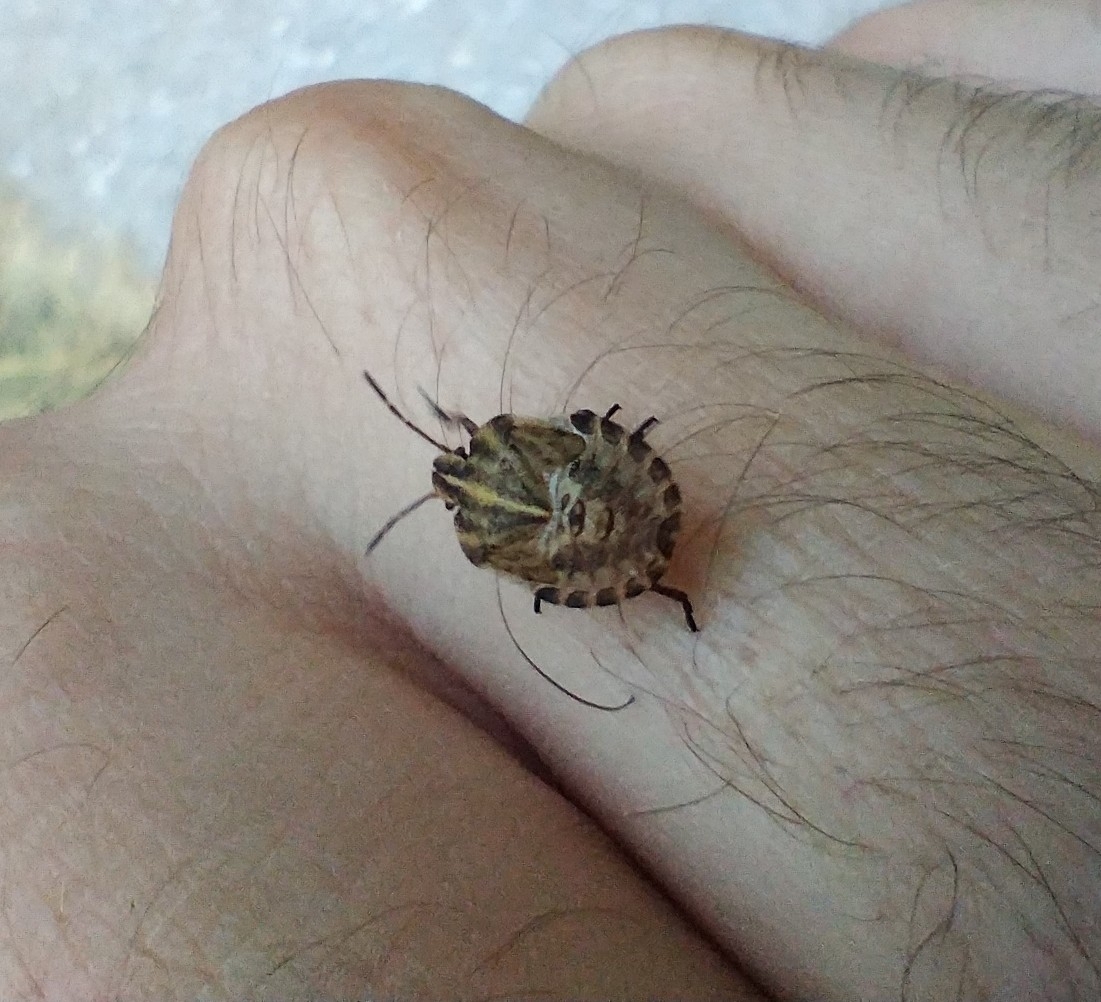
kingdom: Animalia
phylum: Arthropoda
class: Insecta
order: Hemiptera
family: Pentatomidae
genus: Graphosoma
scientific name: Graphosoma italicum
